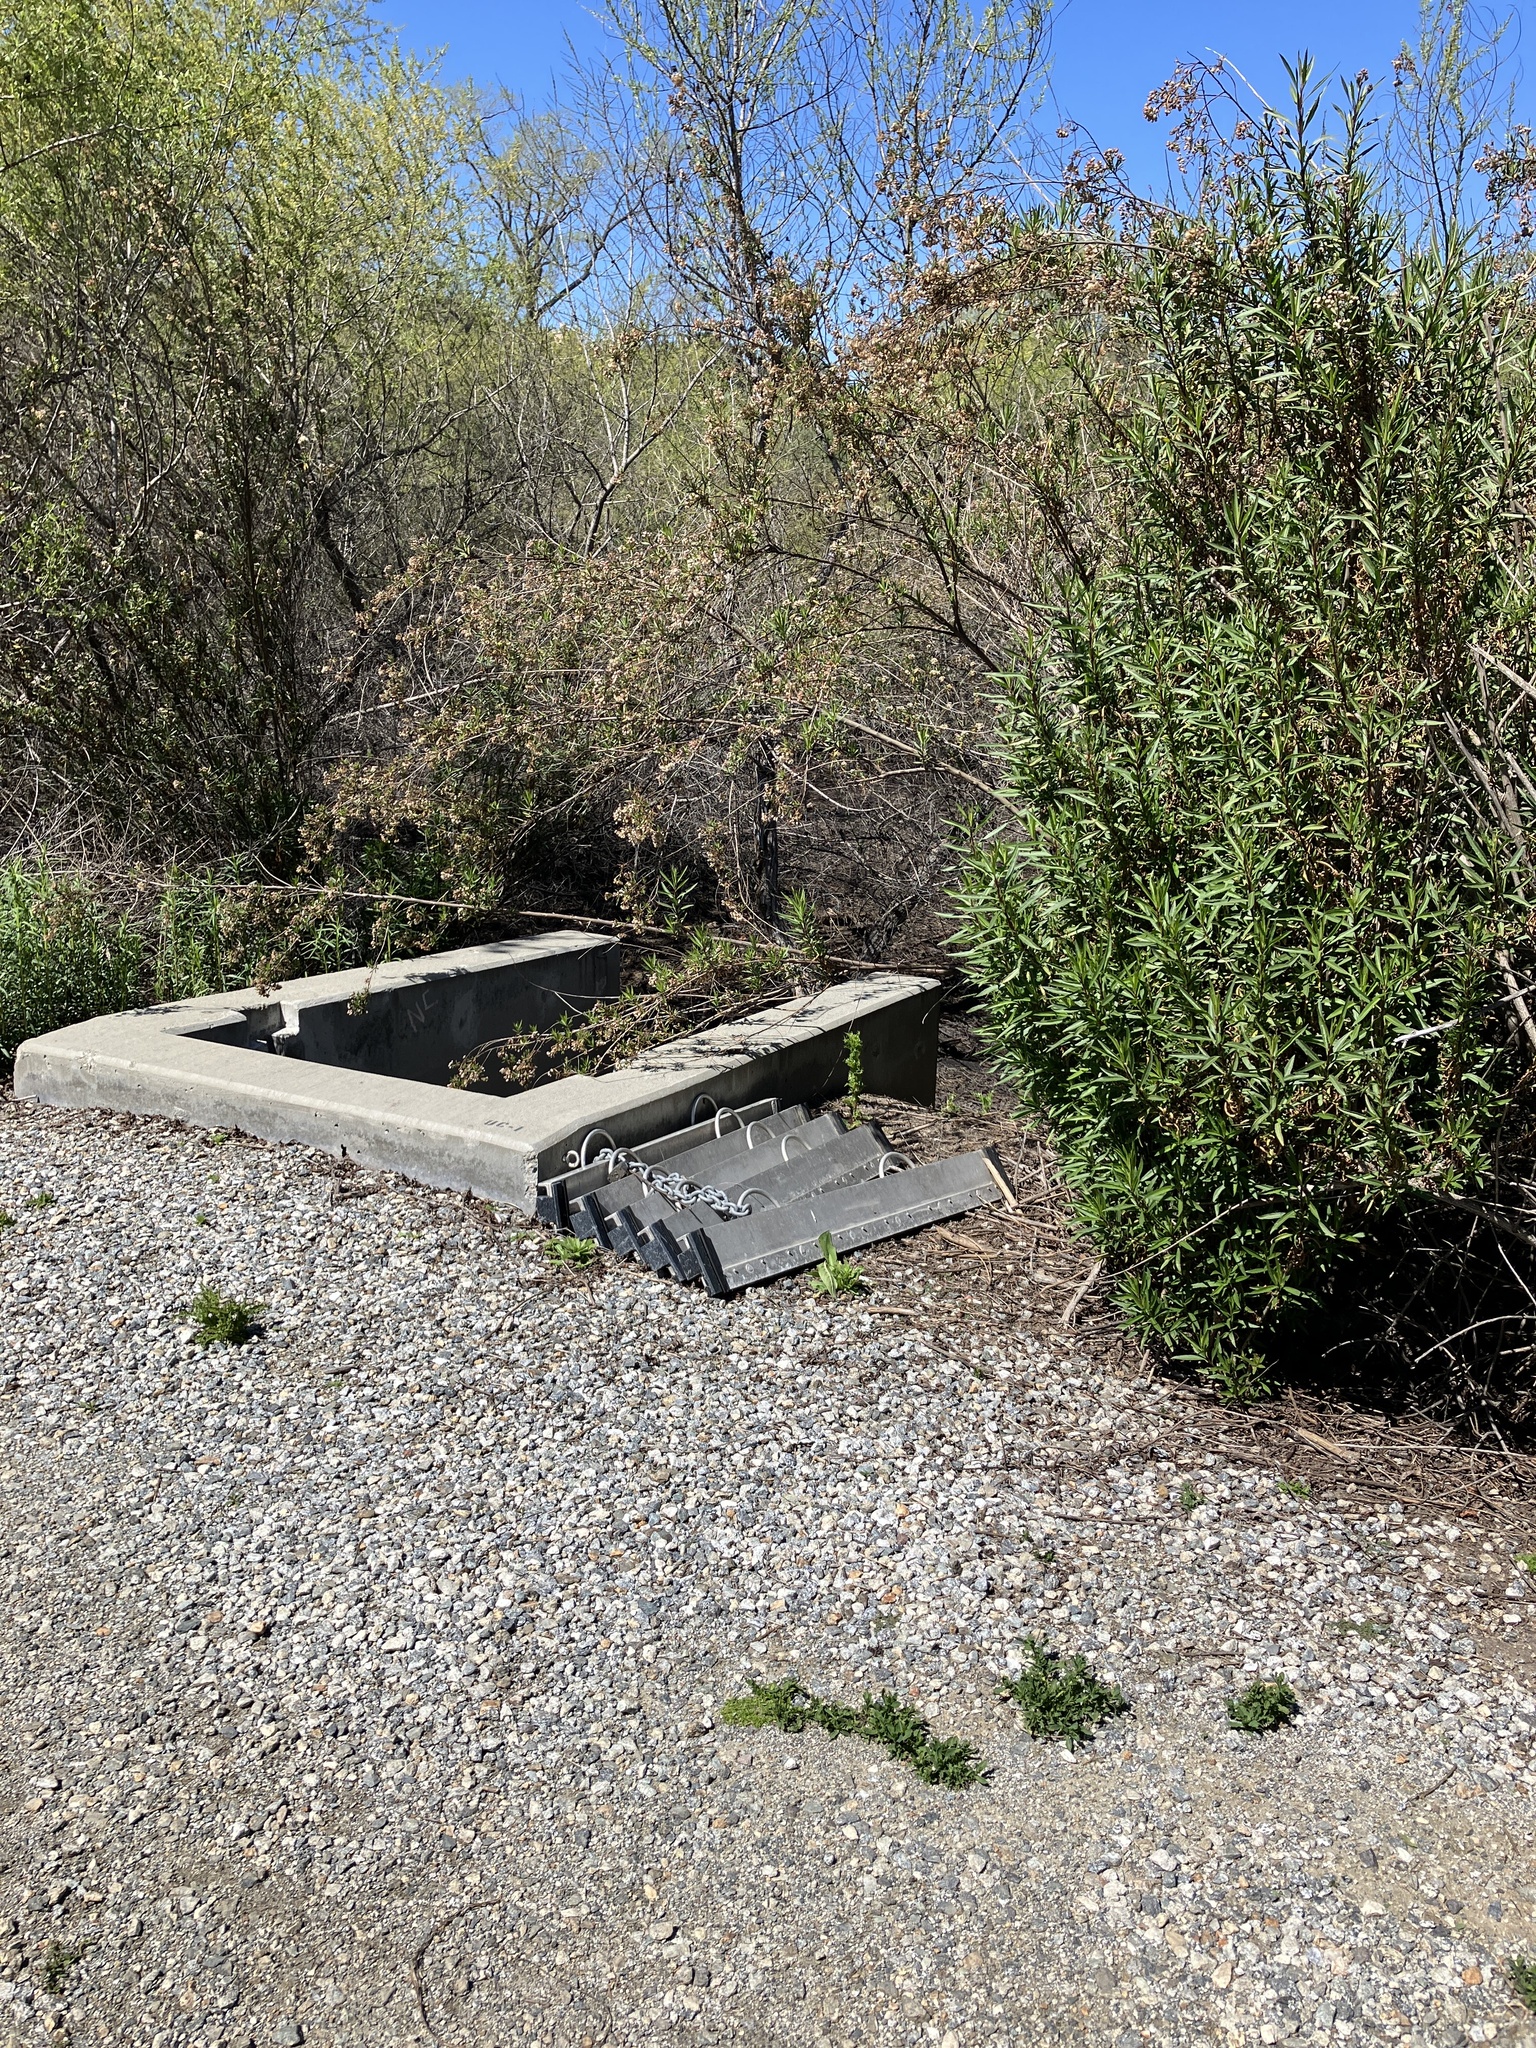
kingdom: Animalia
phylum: Chordata
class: Squamata
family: Phrynosomatidae
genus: Sceloporus
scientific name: Sceloporus occidentalis
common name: Western fence lizard
